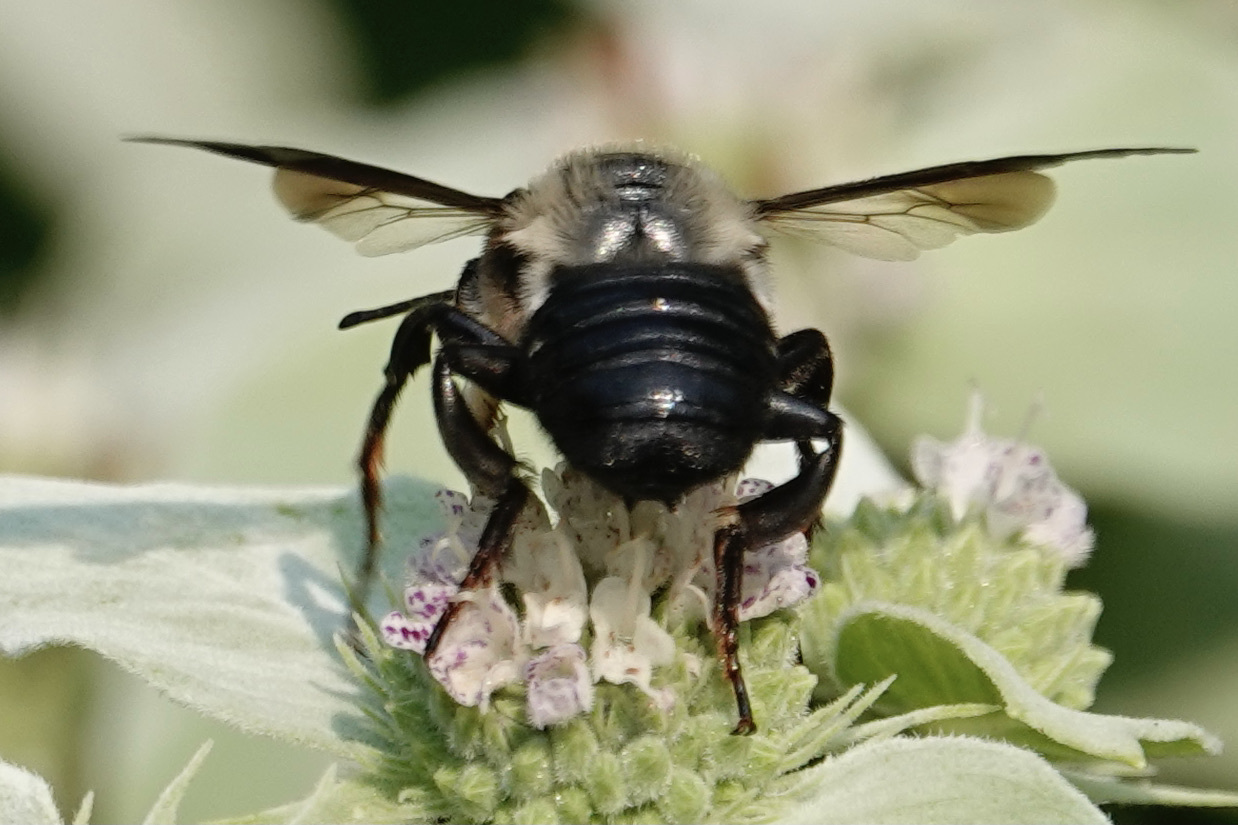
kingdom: Animalia
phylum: Arthropoda
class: Insecta
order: Hymenoptera
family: Megachilidae
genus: Megachile
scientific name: Megachile xylocopoides
